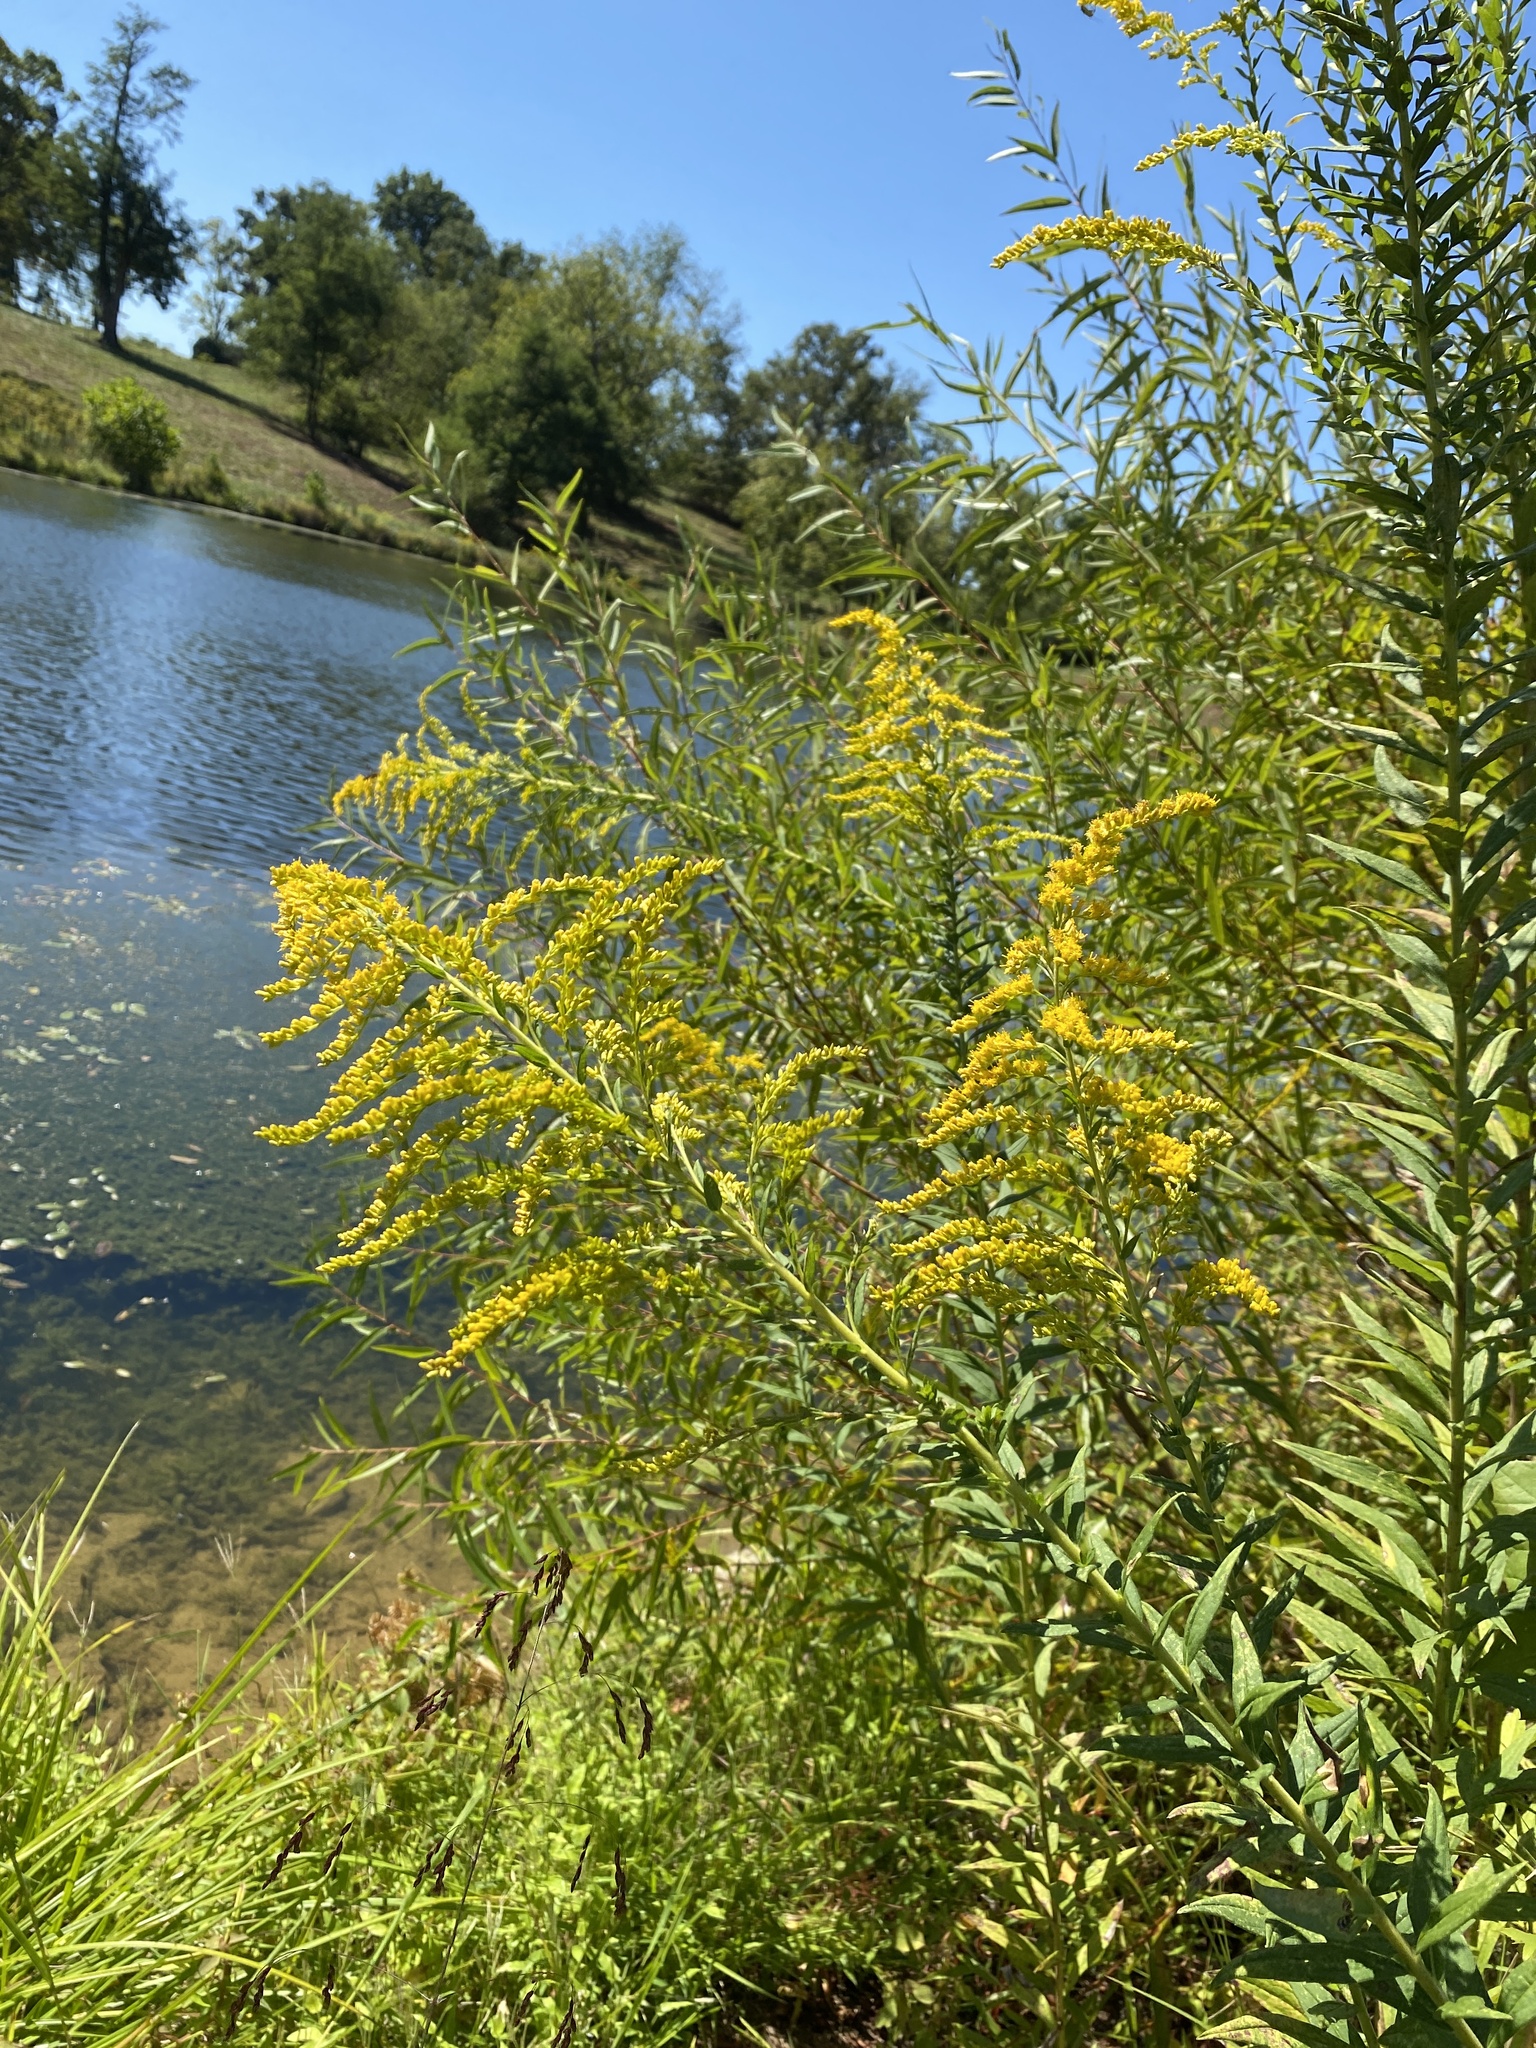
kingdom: Plantae
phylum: Tracheophyta
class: Magnoliopsida
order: Asterales
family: Asteraceae
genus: Solidago
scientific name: Solidago altissima
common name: Late goldenrod
